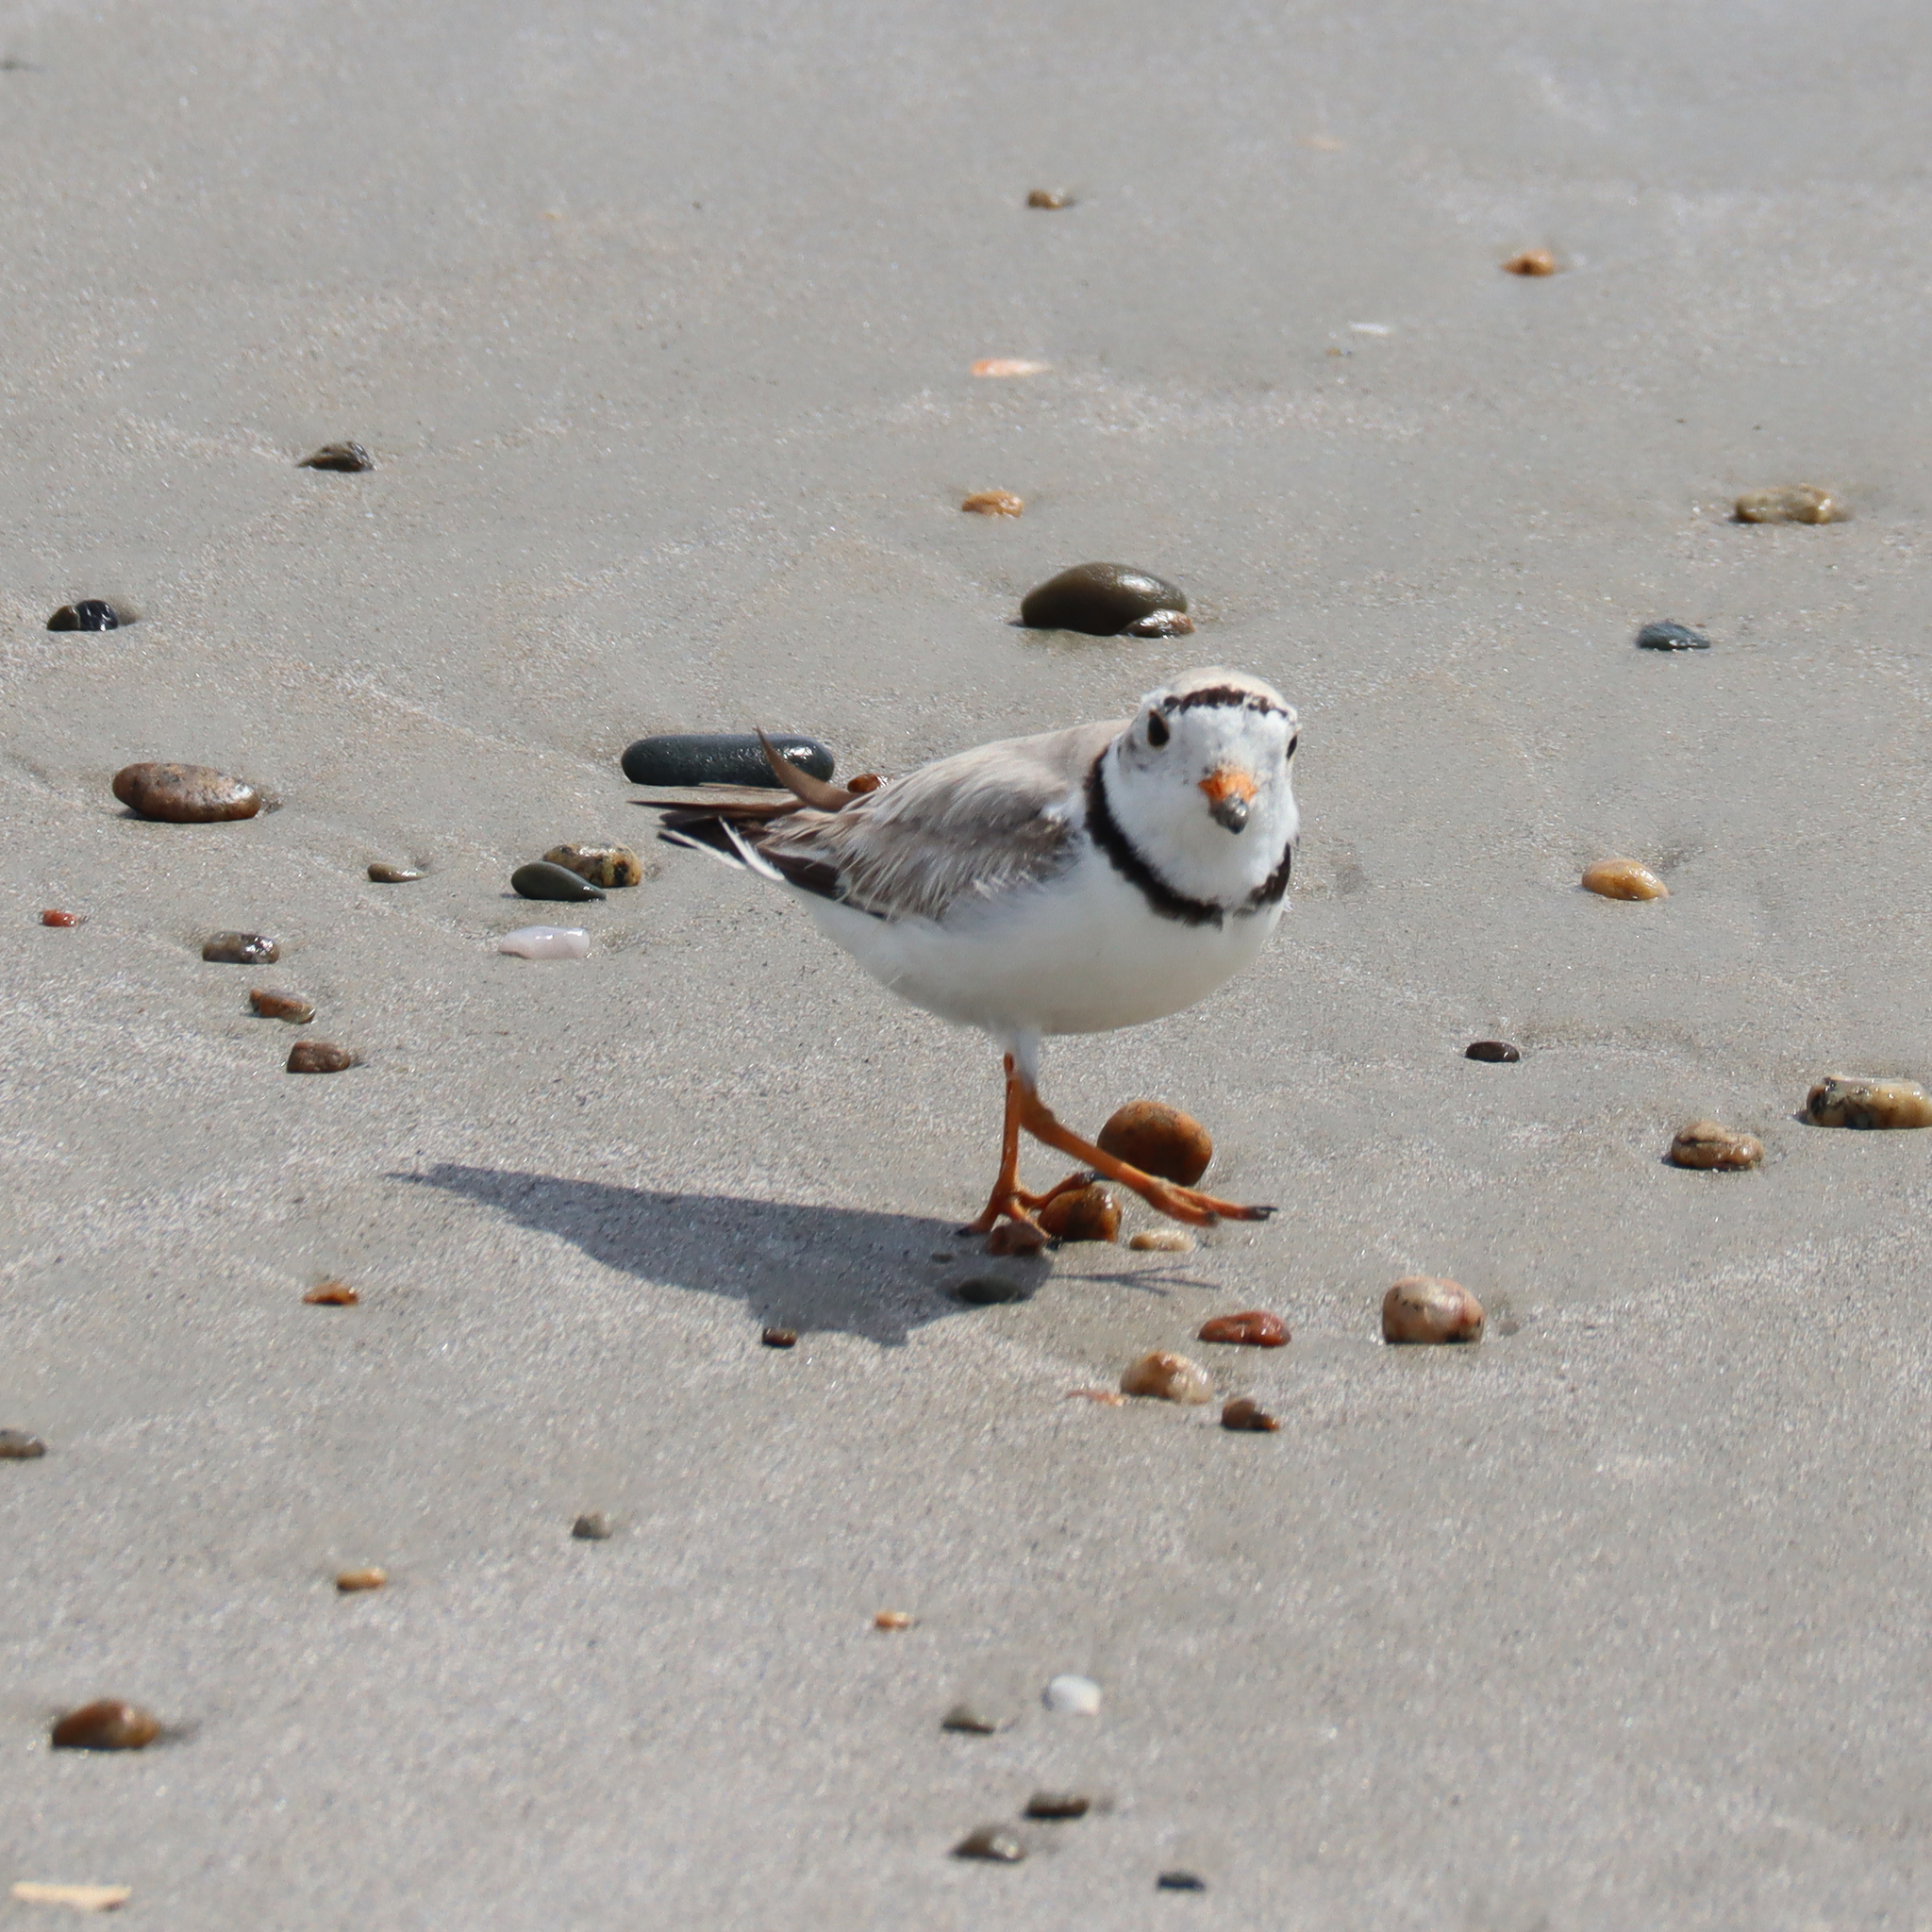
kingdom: Animalia
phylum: Chordata
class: Aves
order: Charadriiformes
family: Charadriidae
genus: Charadrius
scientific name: Charadrius melodus
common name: Piping plover
